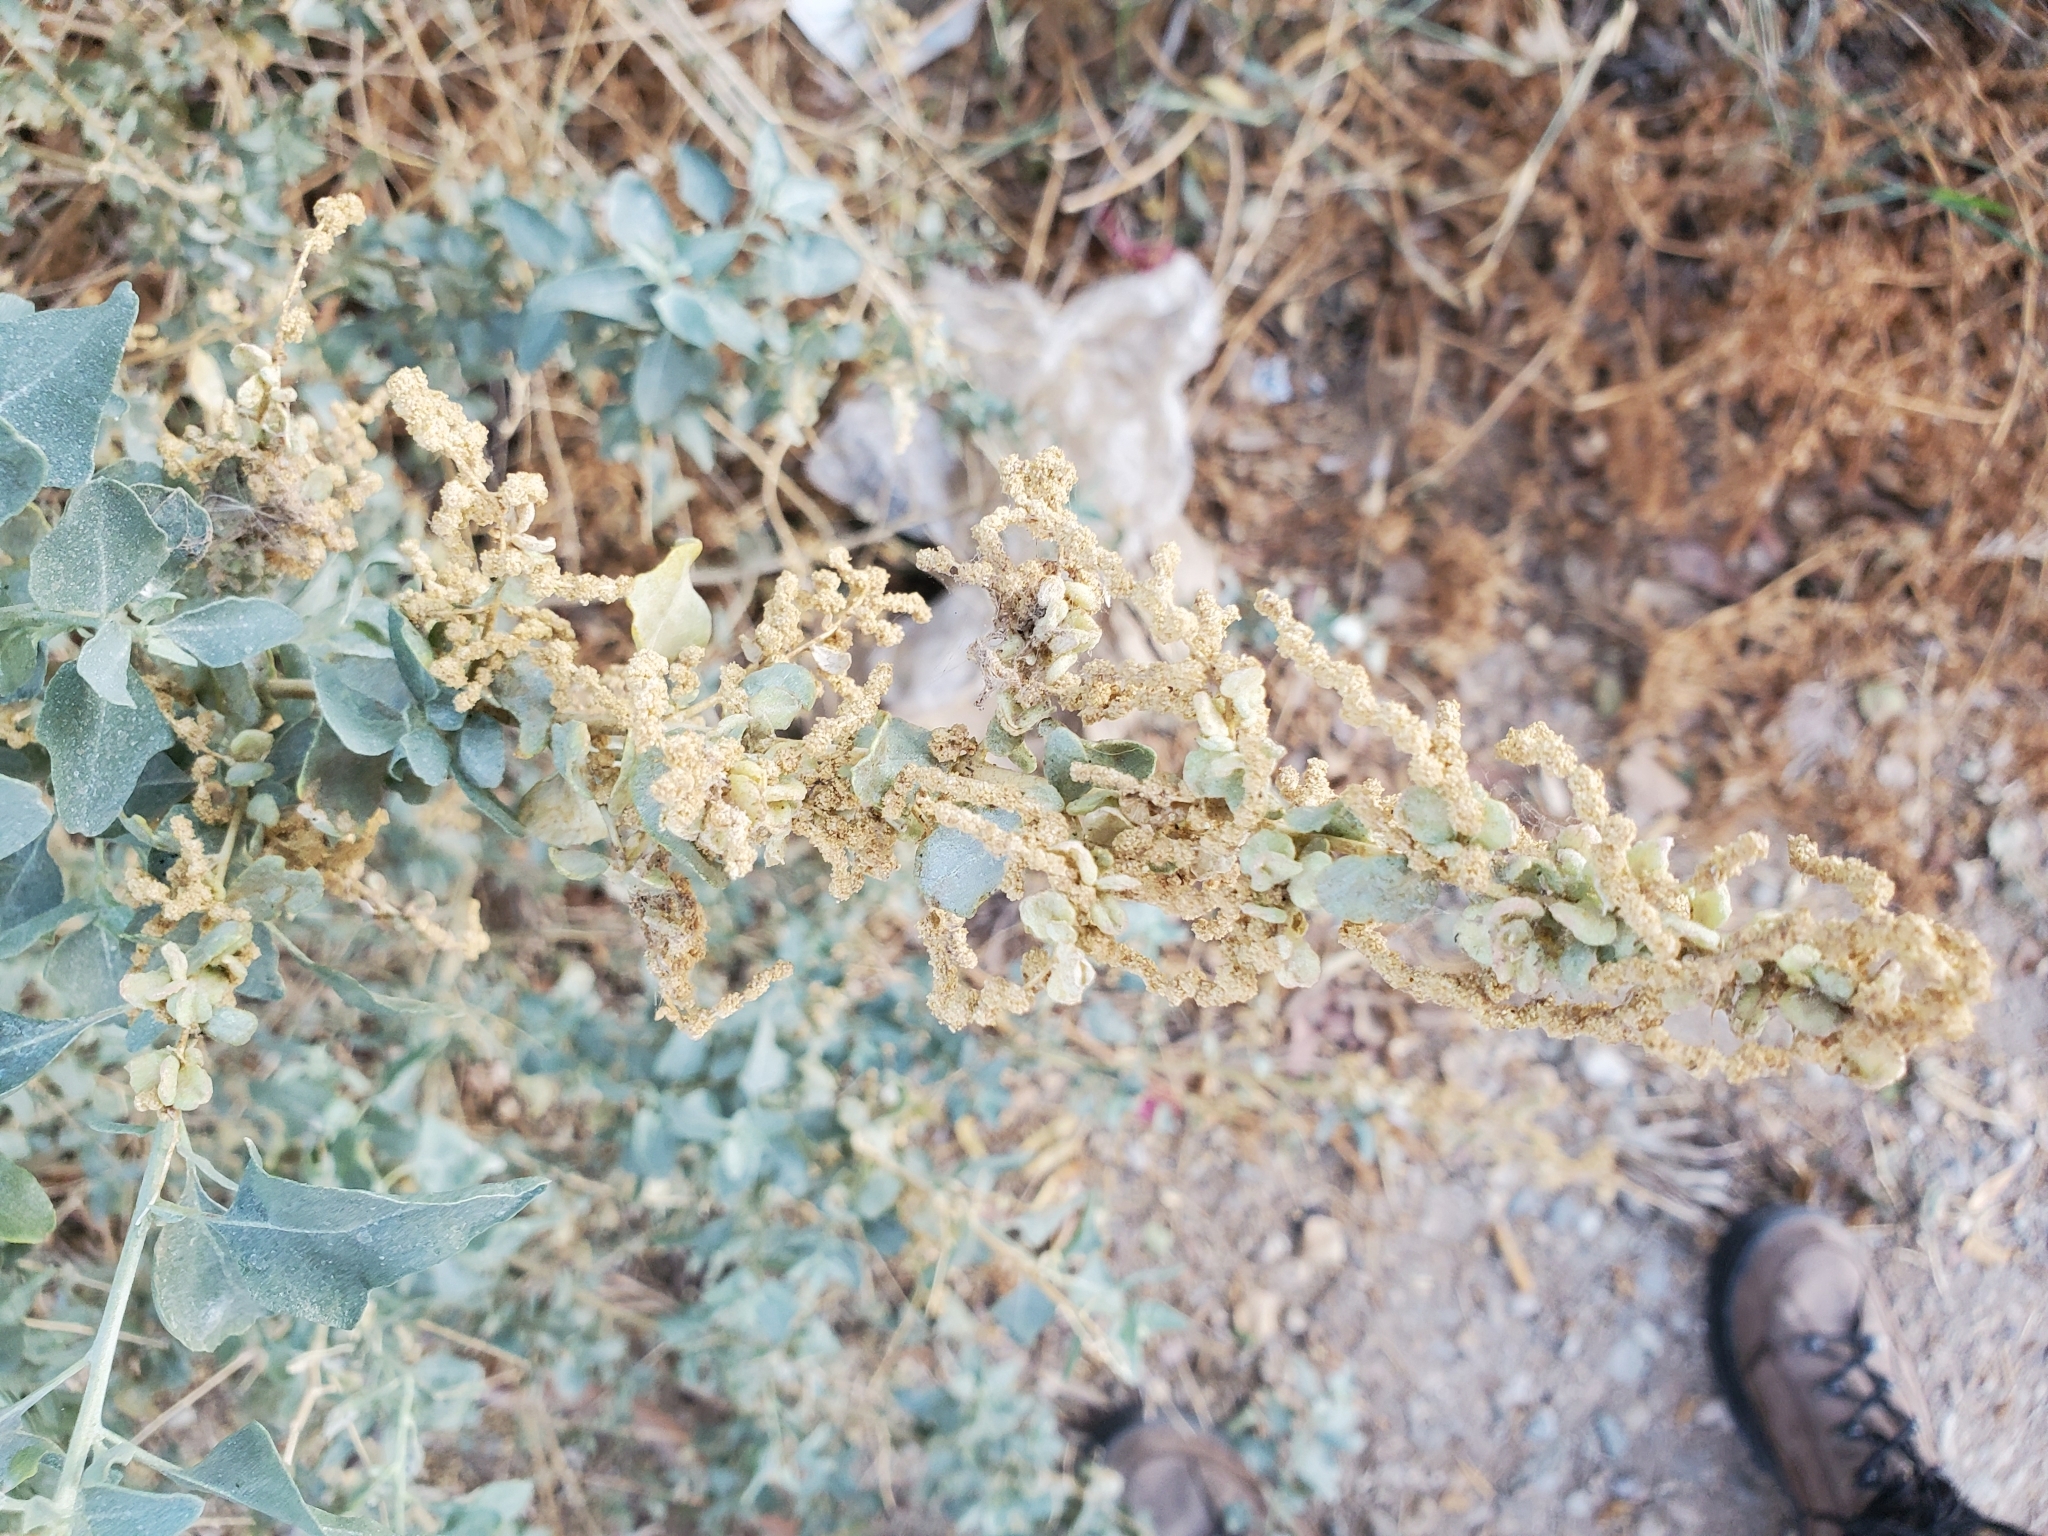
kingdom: Plantae
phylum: Tracheophyta
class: Magnoliopsida
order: Caryophyllales
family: Amaranthaceae
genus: Atriplex
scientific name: Atriplex lentiformis
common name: Big saltbush
